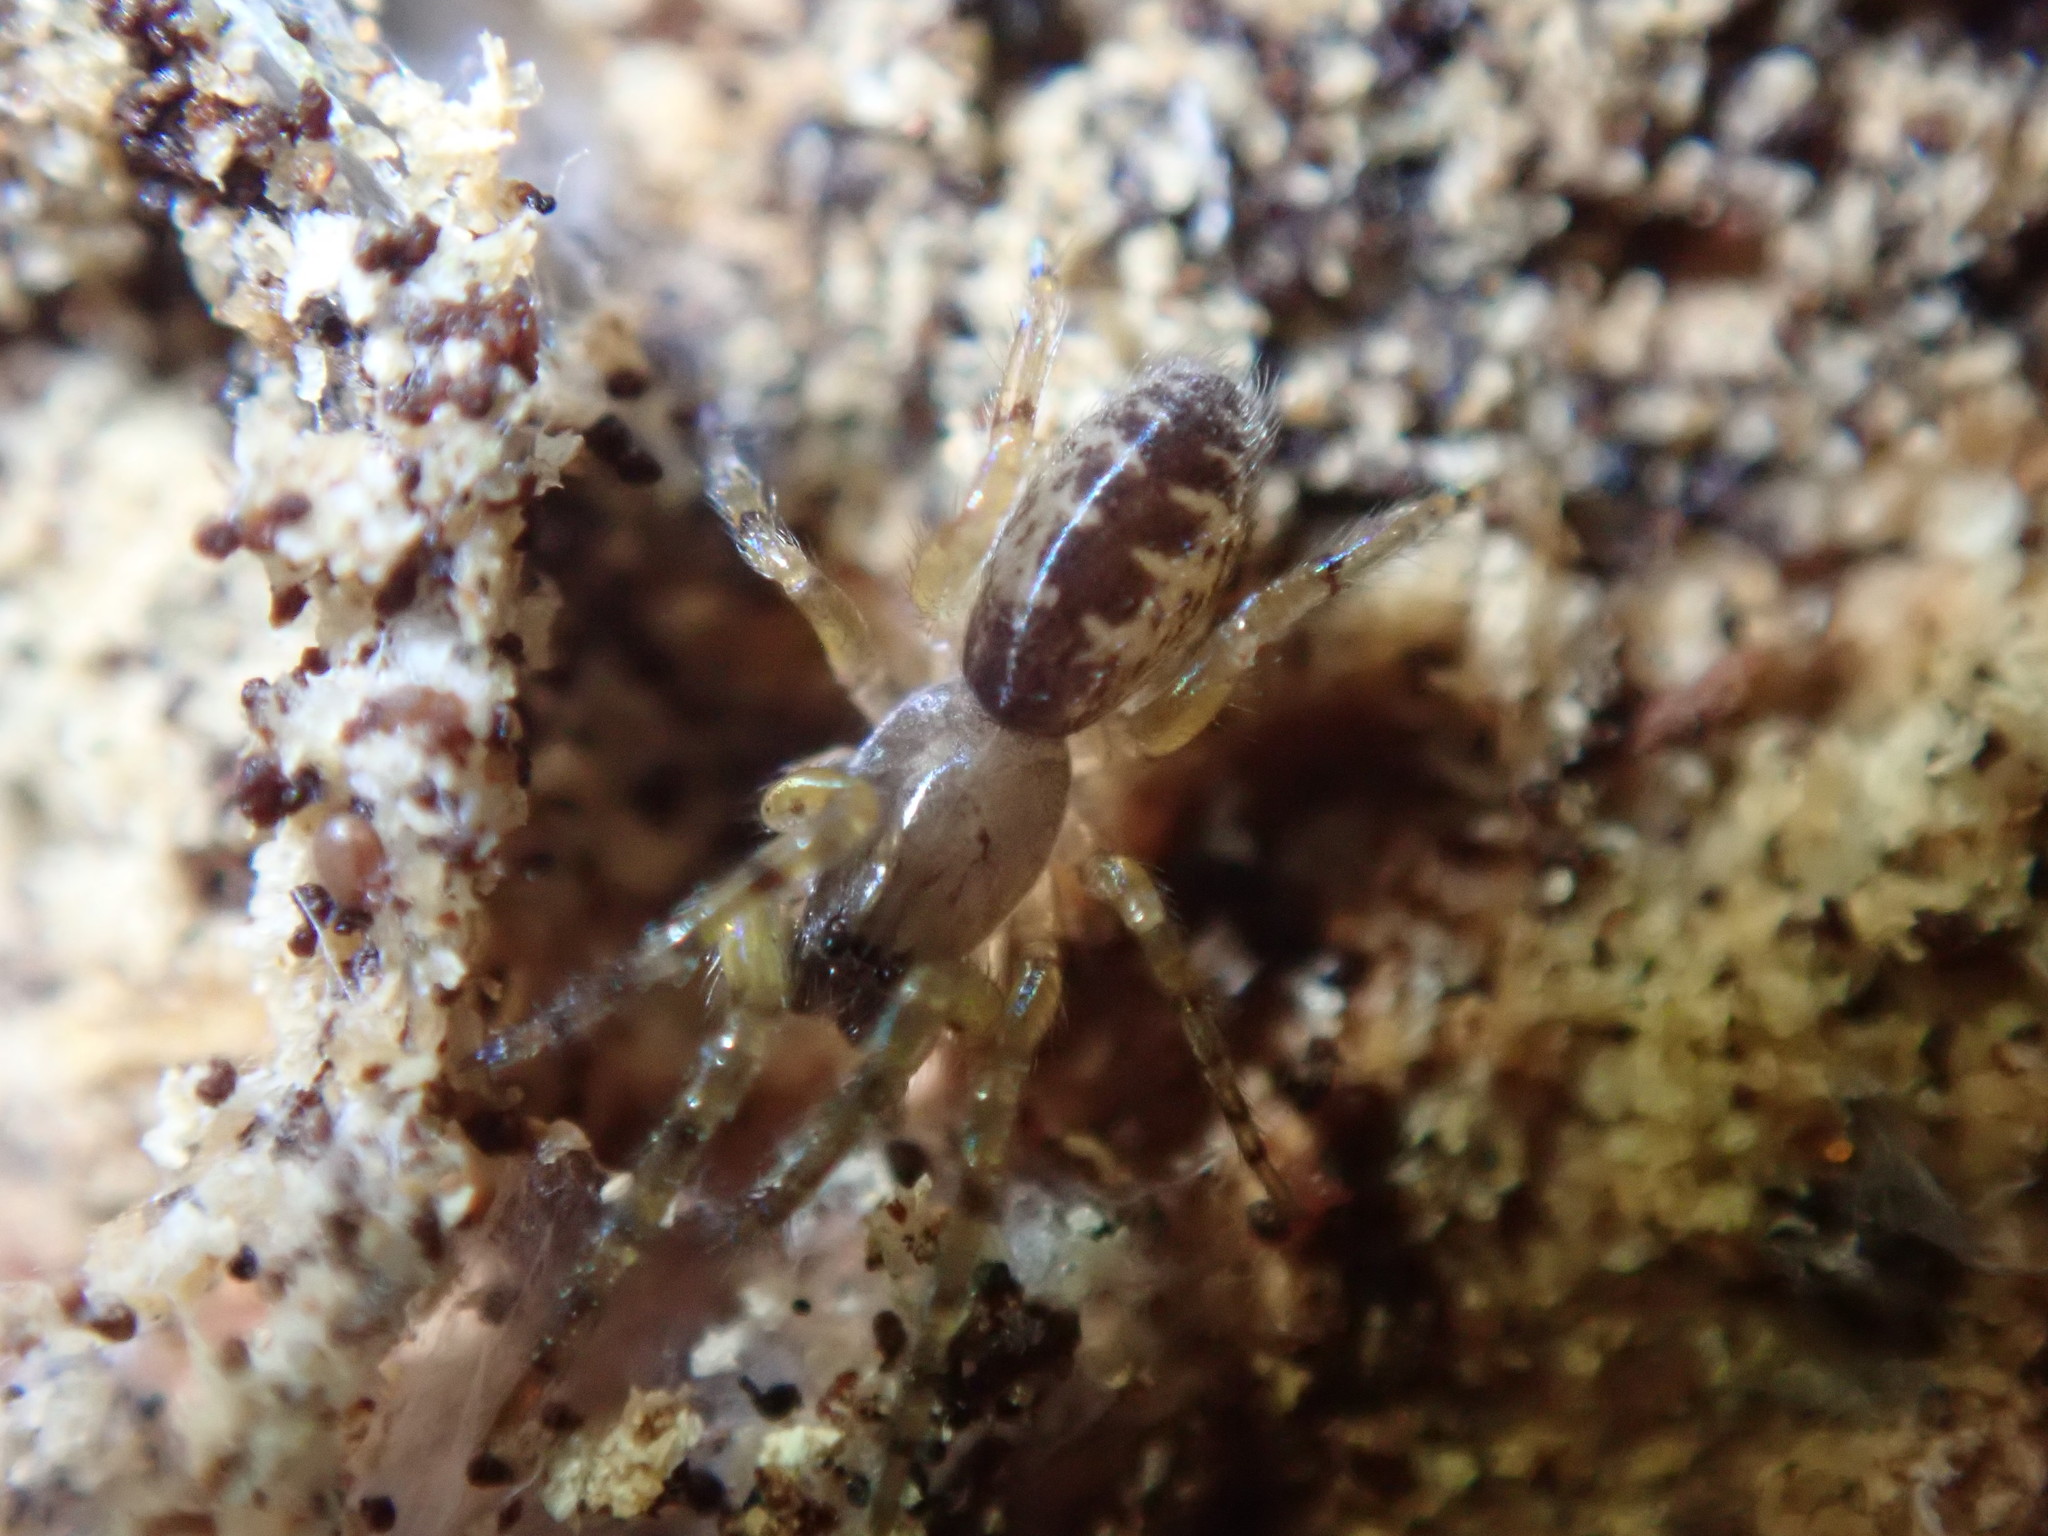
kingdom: Animalia
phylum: Arthropoda
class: Arachnida
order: Araneae
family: Segestriidae
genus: Segestria
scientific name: Segestria senoculata
